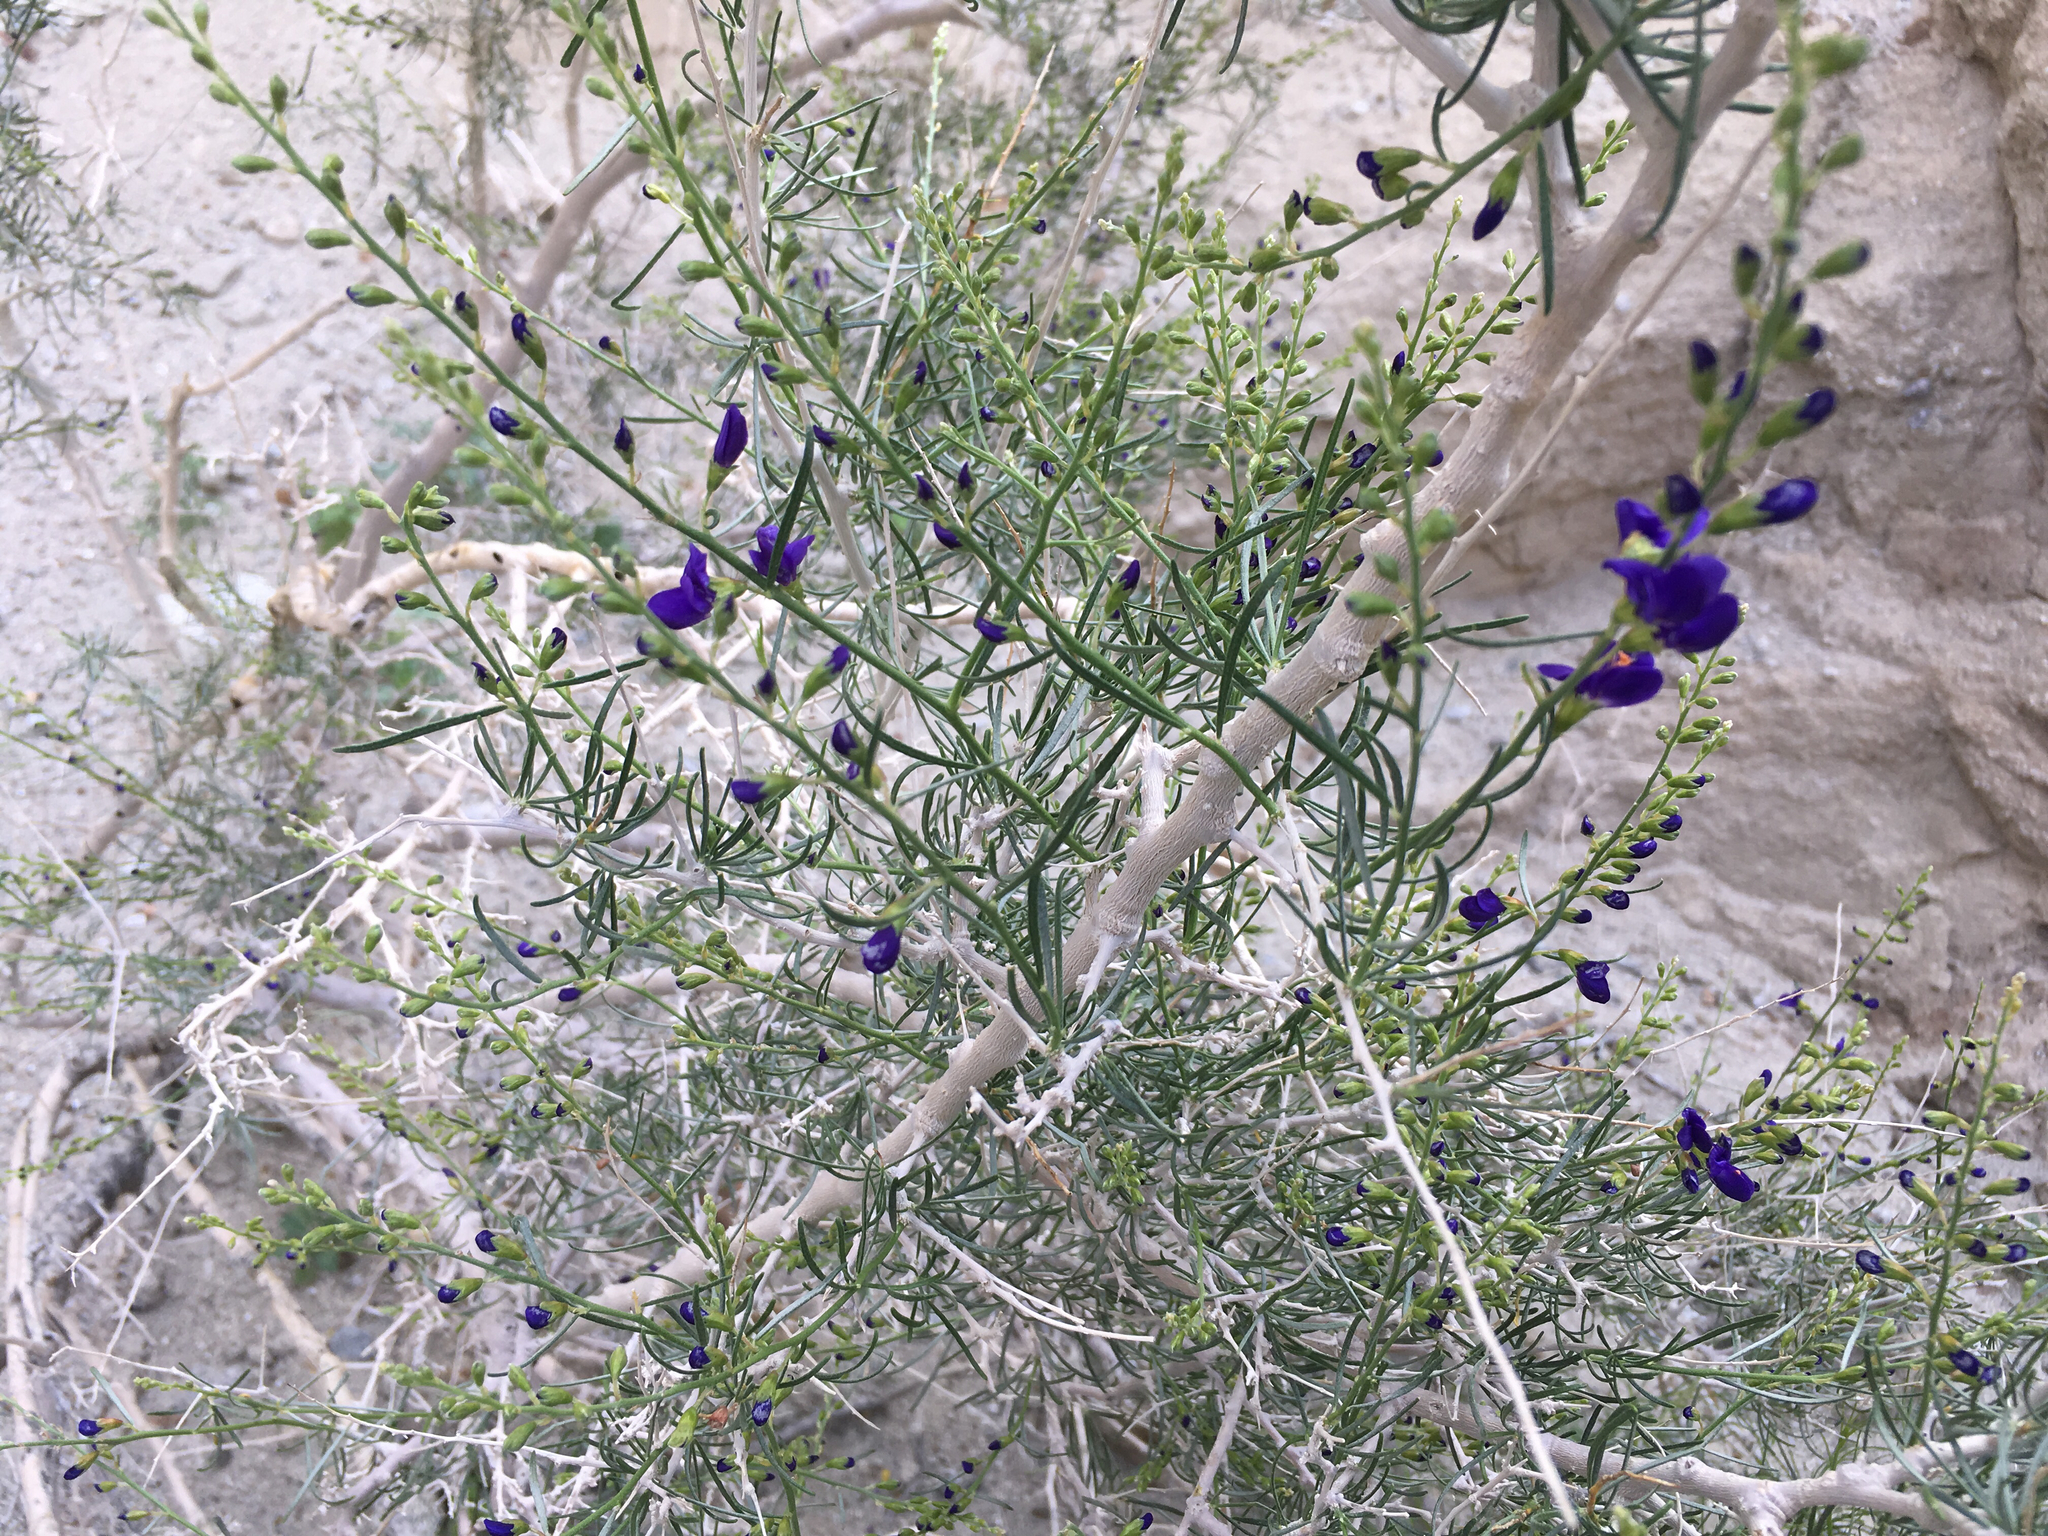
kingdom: Plantae
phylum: Tracheophyta
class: Magnoliopsida
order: Fabales
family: Fabaceae
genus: Psorothamnus
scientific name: Psorothamnus schottii
